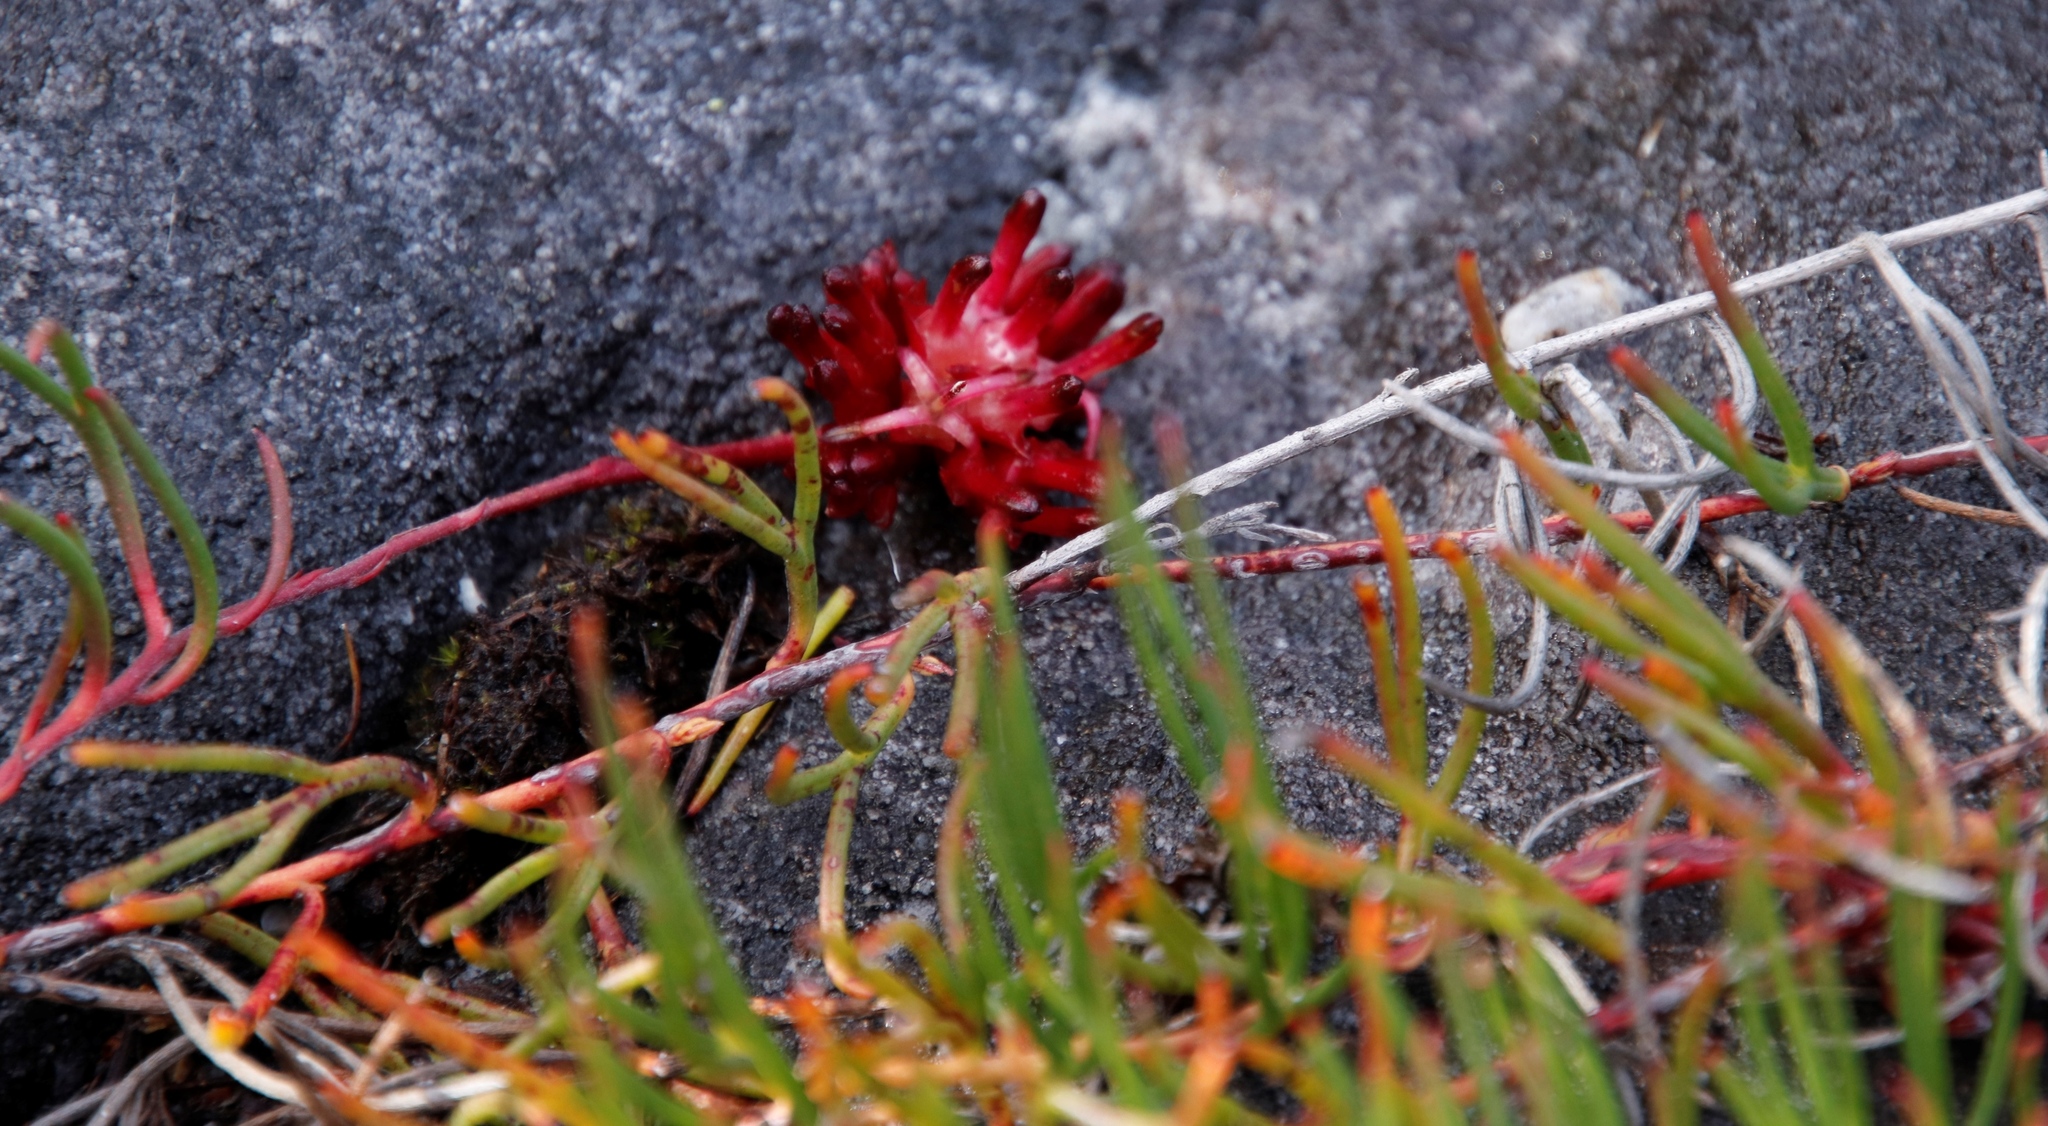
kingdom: Plantae
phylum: Tracheophyta
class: Magnoliopsida
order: Proteales
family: Proteaceae
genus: Serruria
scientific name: Serruria decumbens
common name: Peninsula spiderhead
